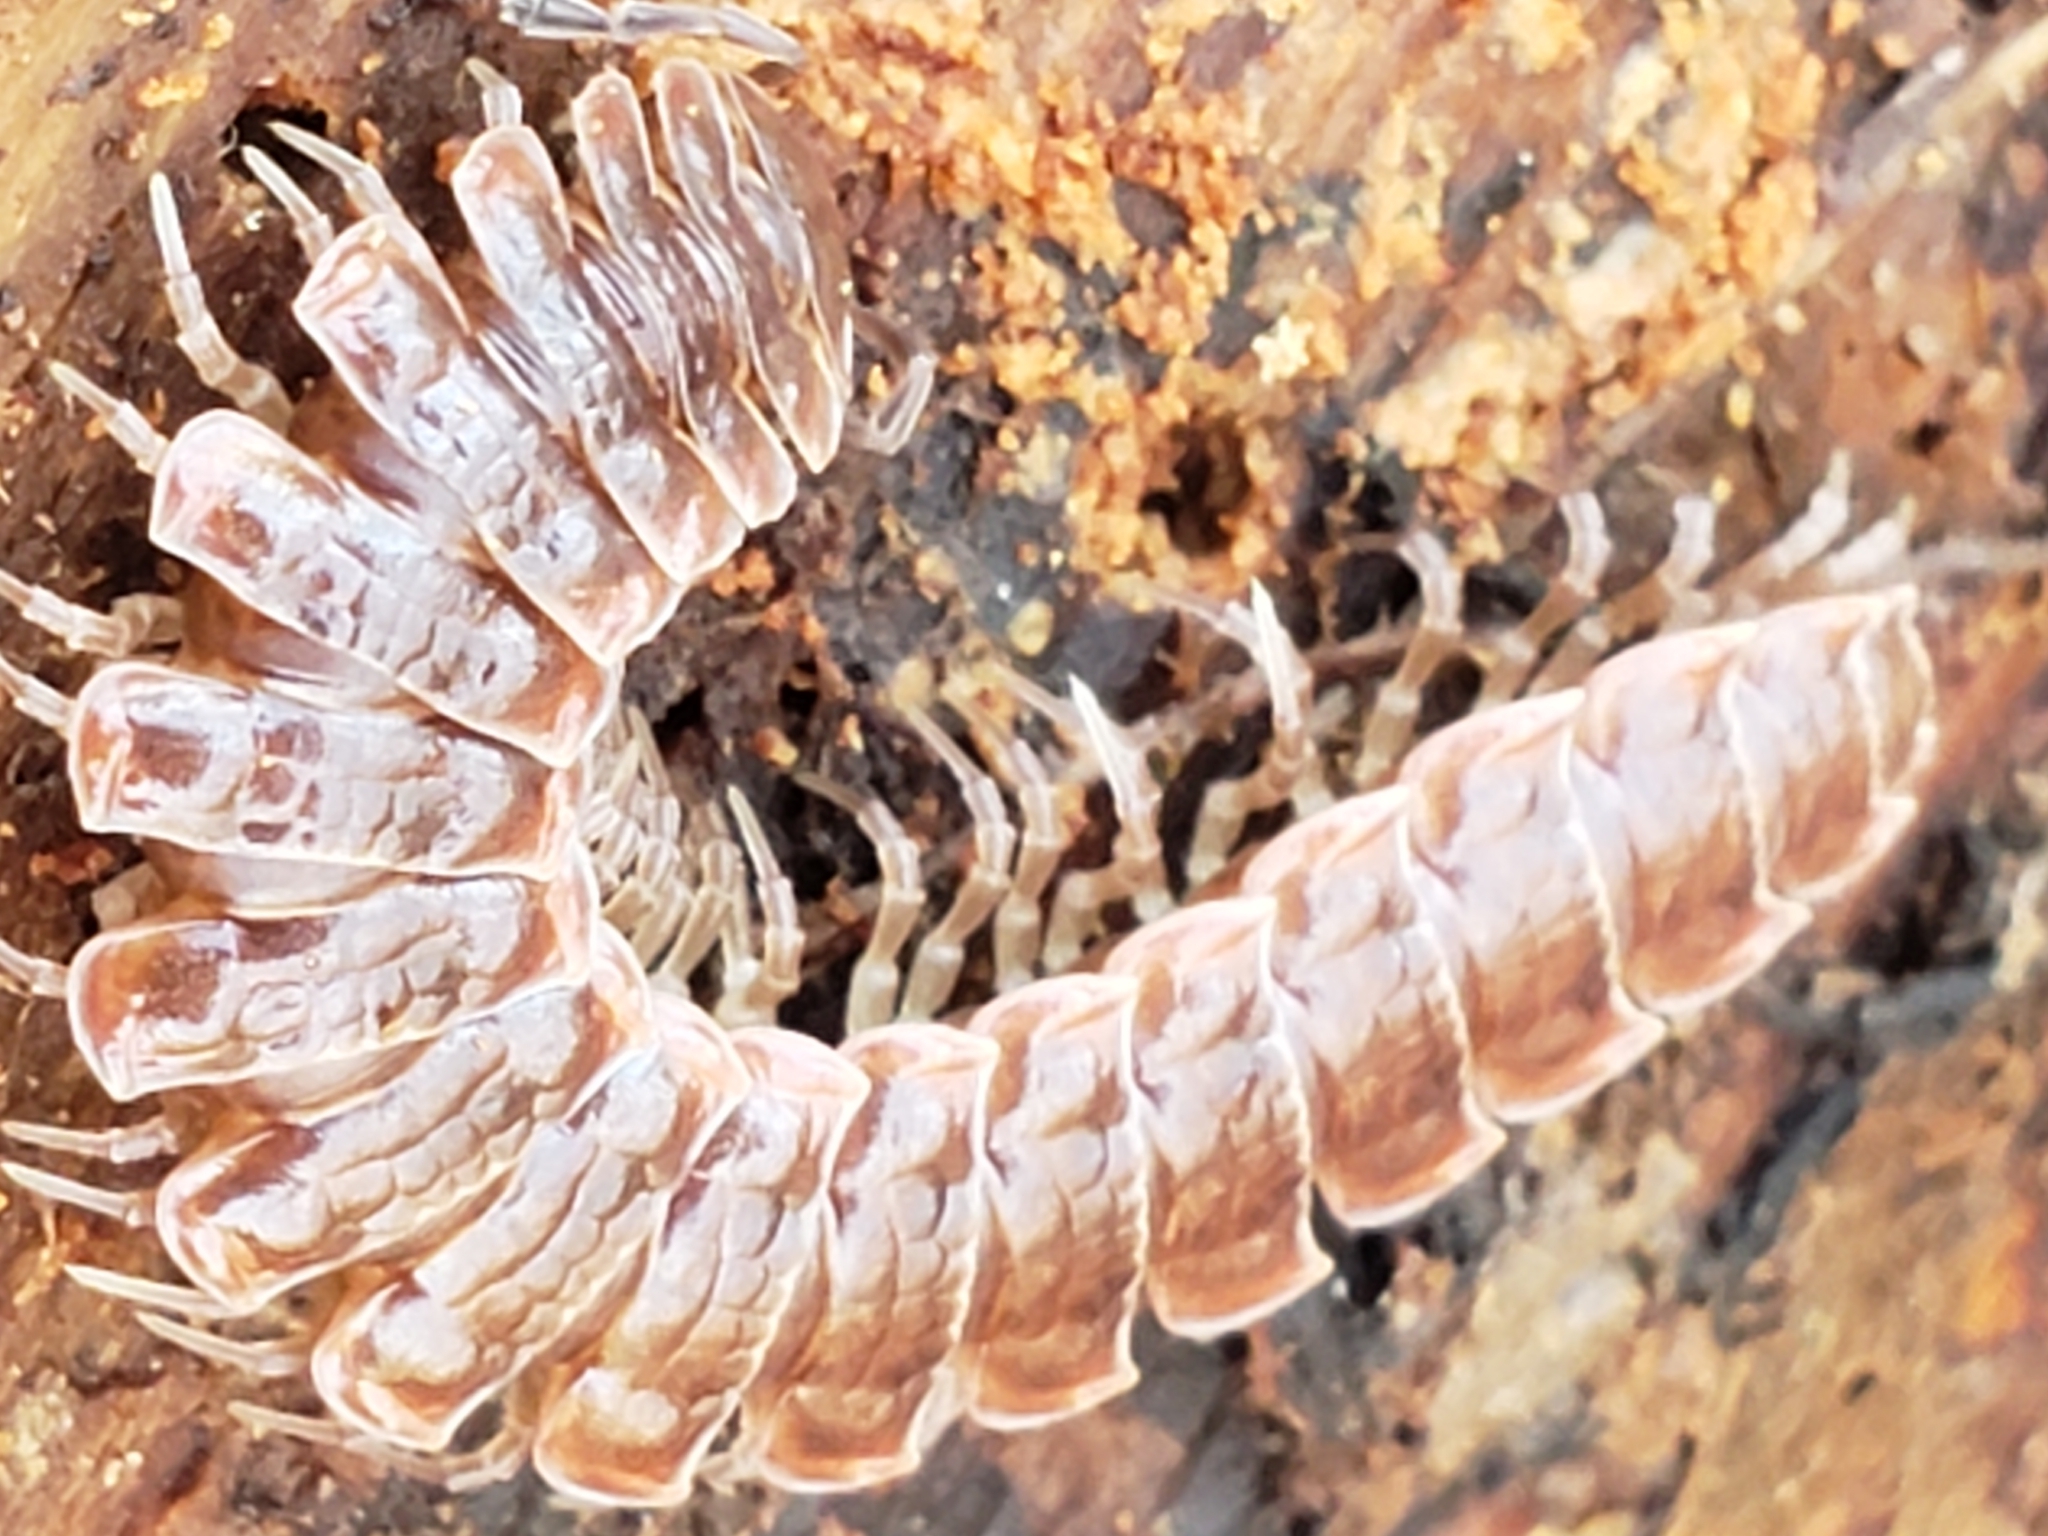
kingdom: Animalia
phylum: Arthropoda
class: Diplopoda
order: Polydesmida
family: Polydesmidae
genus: Pseudopolydesmus
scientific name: Pseudopolydesmus serratus
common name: Common pink flat-back millipede
